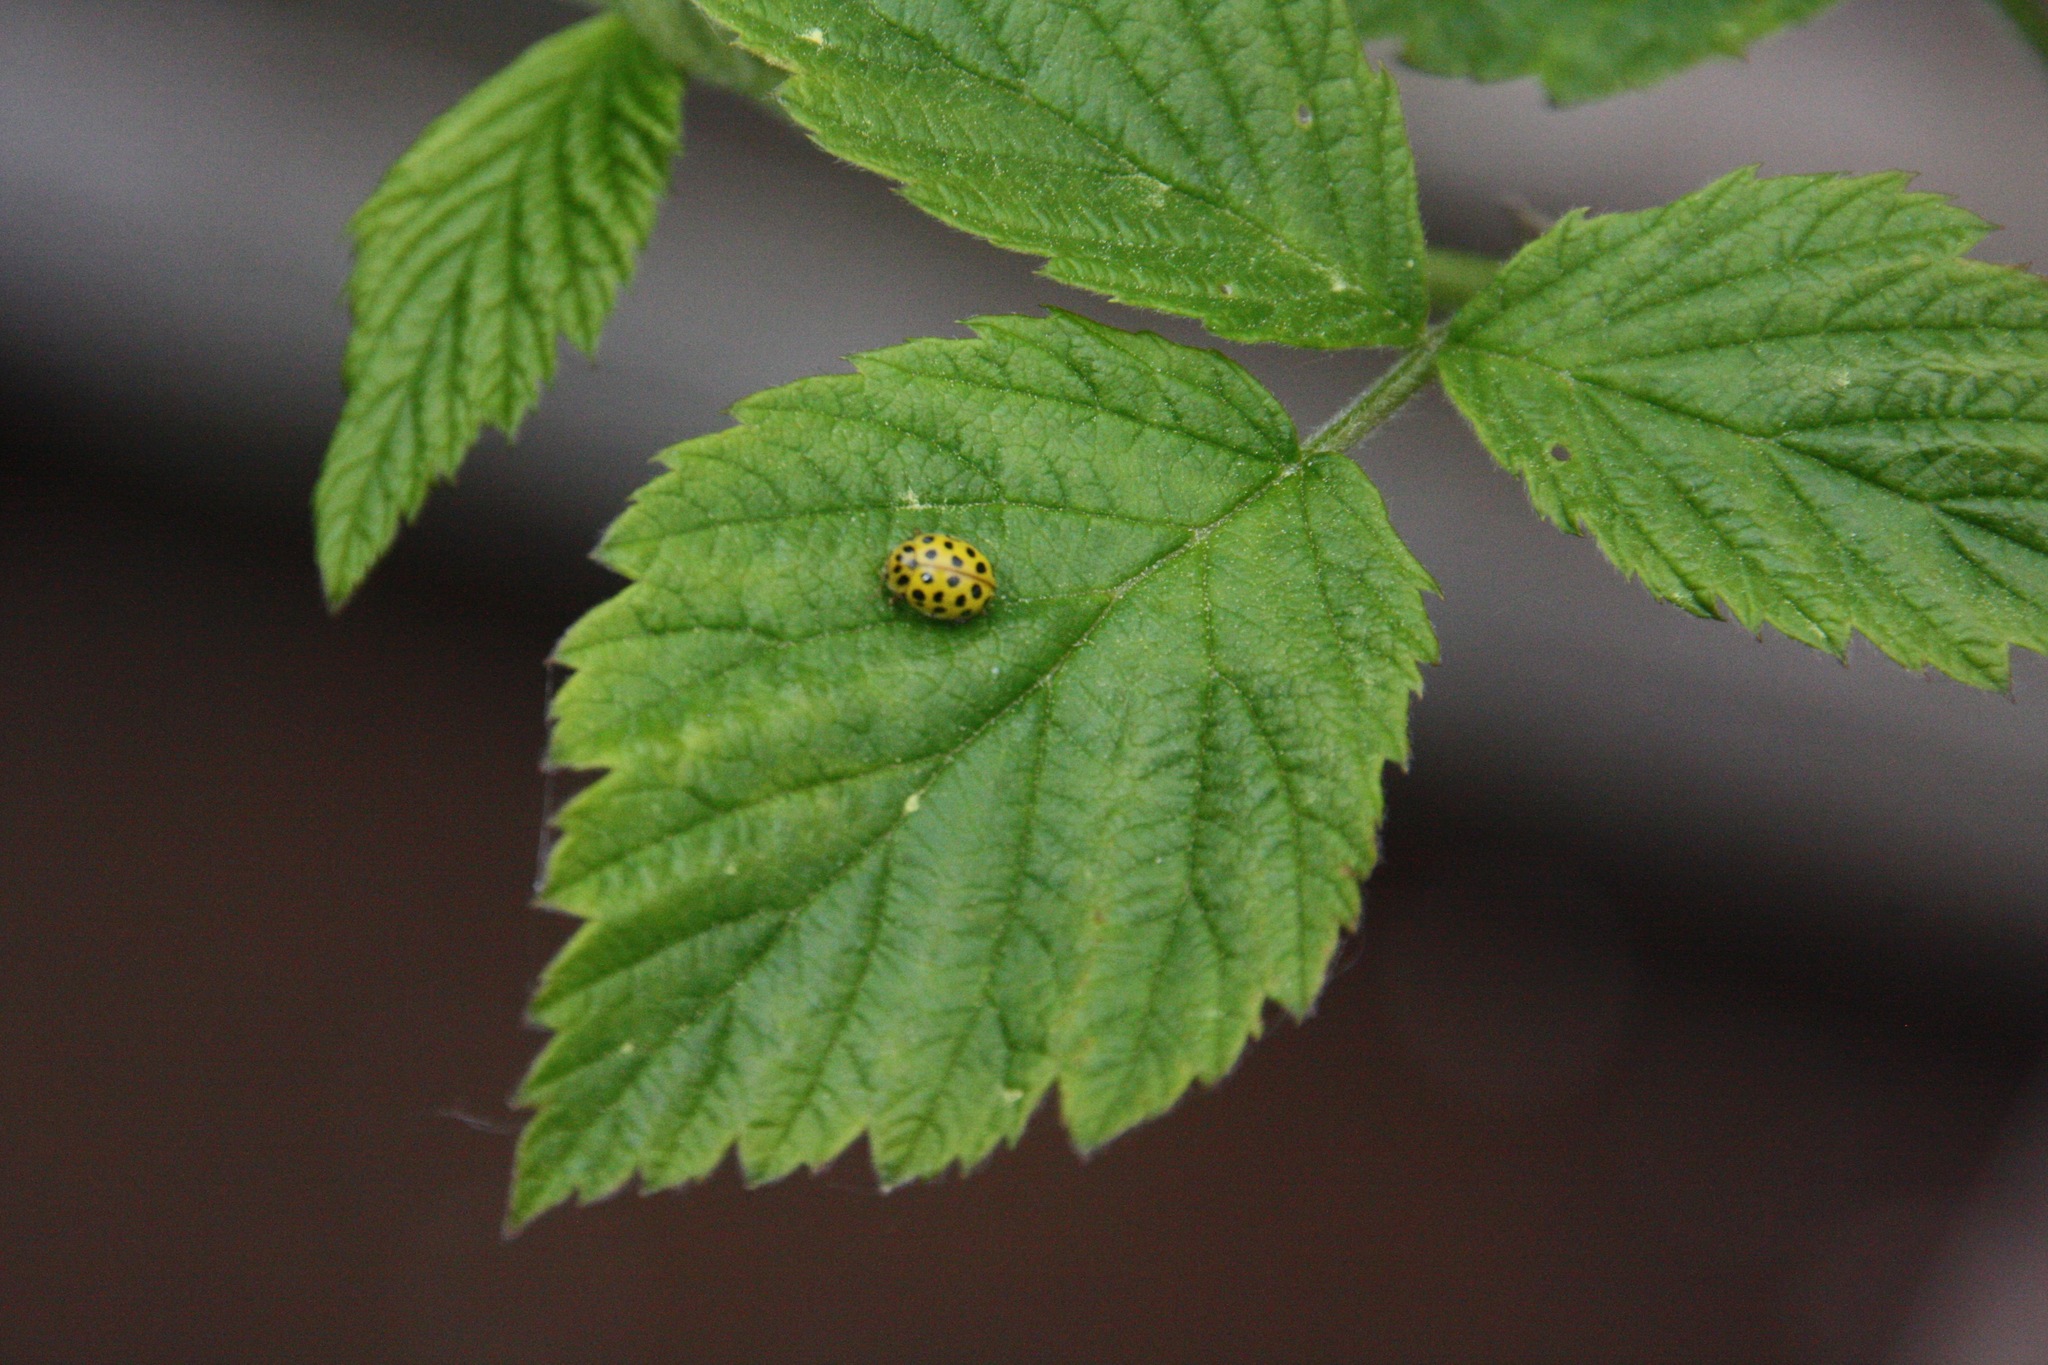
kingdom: Animalia
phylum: Arthropoda
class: Insecta
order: Coleoptera
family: Coccinellidae
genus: Psyllobora
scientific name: Psyllobora vigintiduopunctata
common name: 22-spot ladybird
